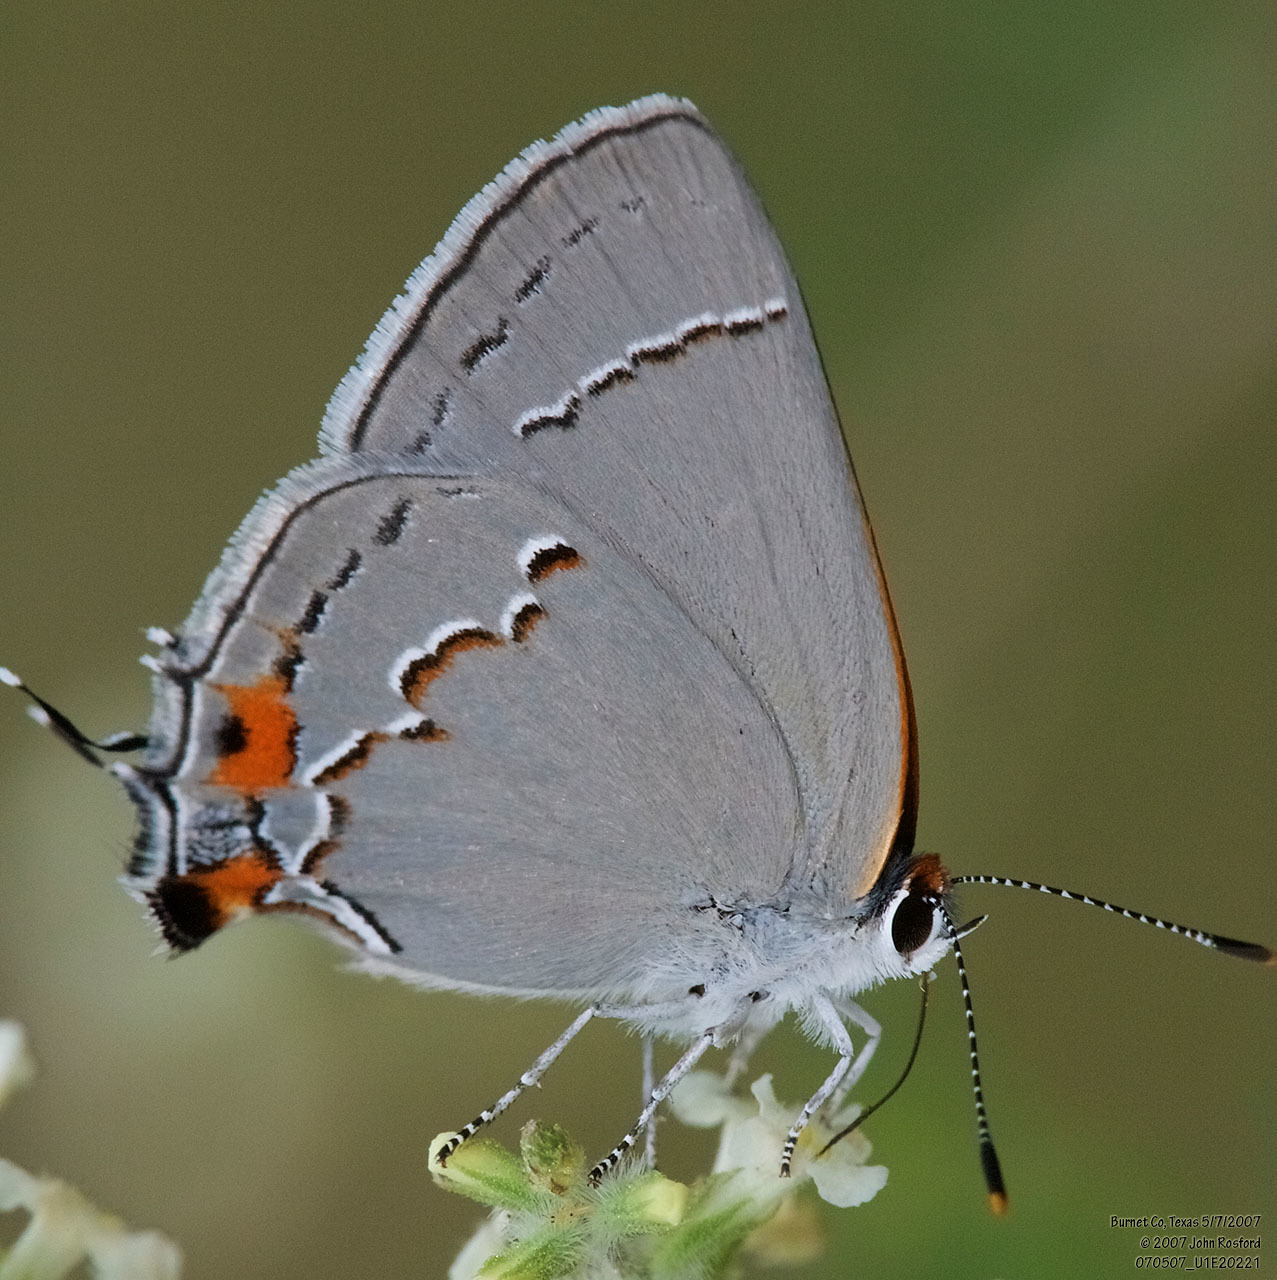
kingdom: Animalia
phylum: Arthropoda
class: Insecta
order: Lepidoptera
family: Lycaenidae
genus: Strymon
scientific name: Strymon melinus
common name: Gray hairstreak
